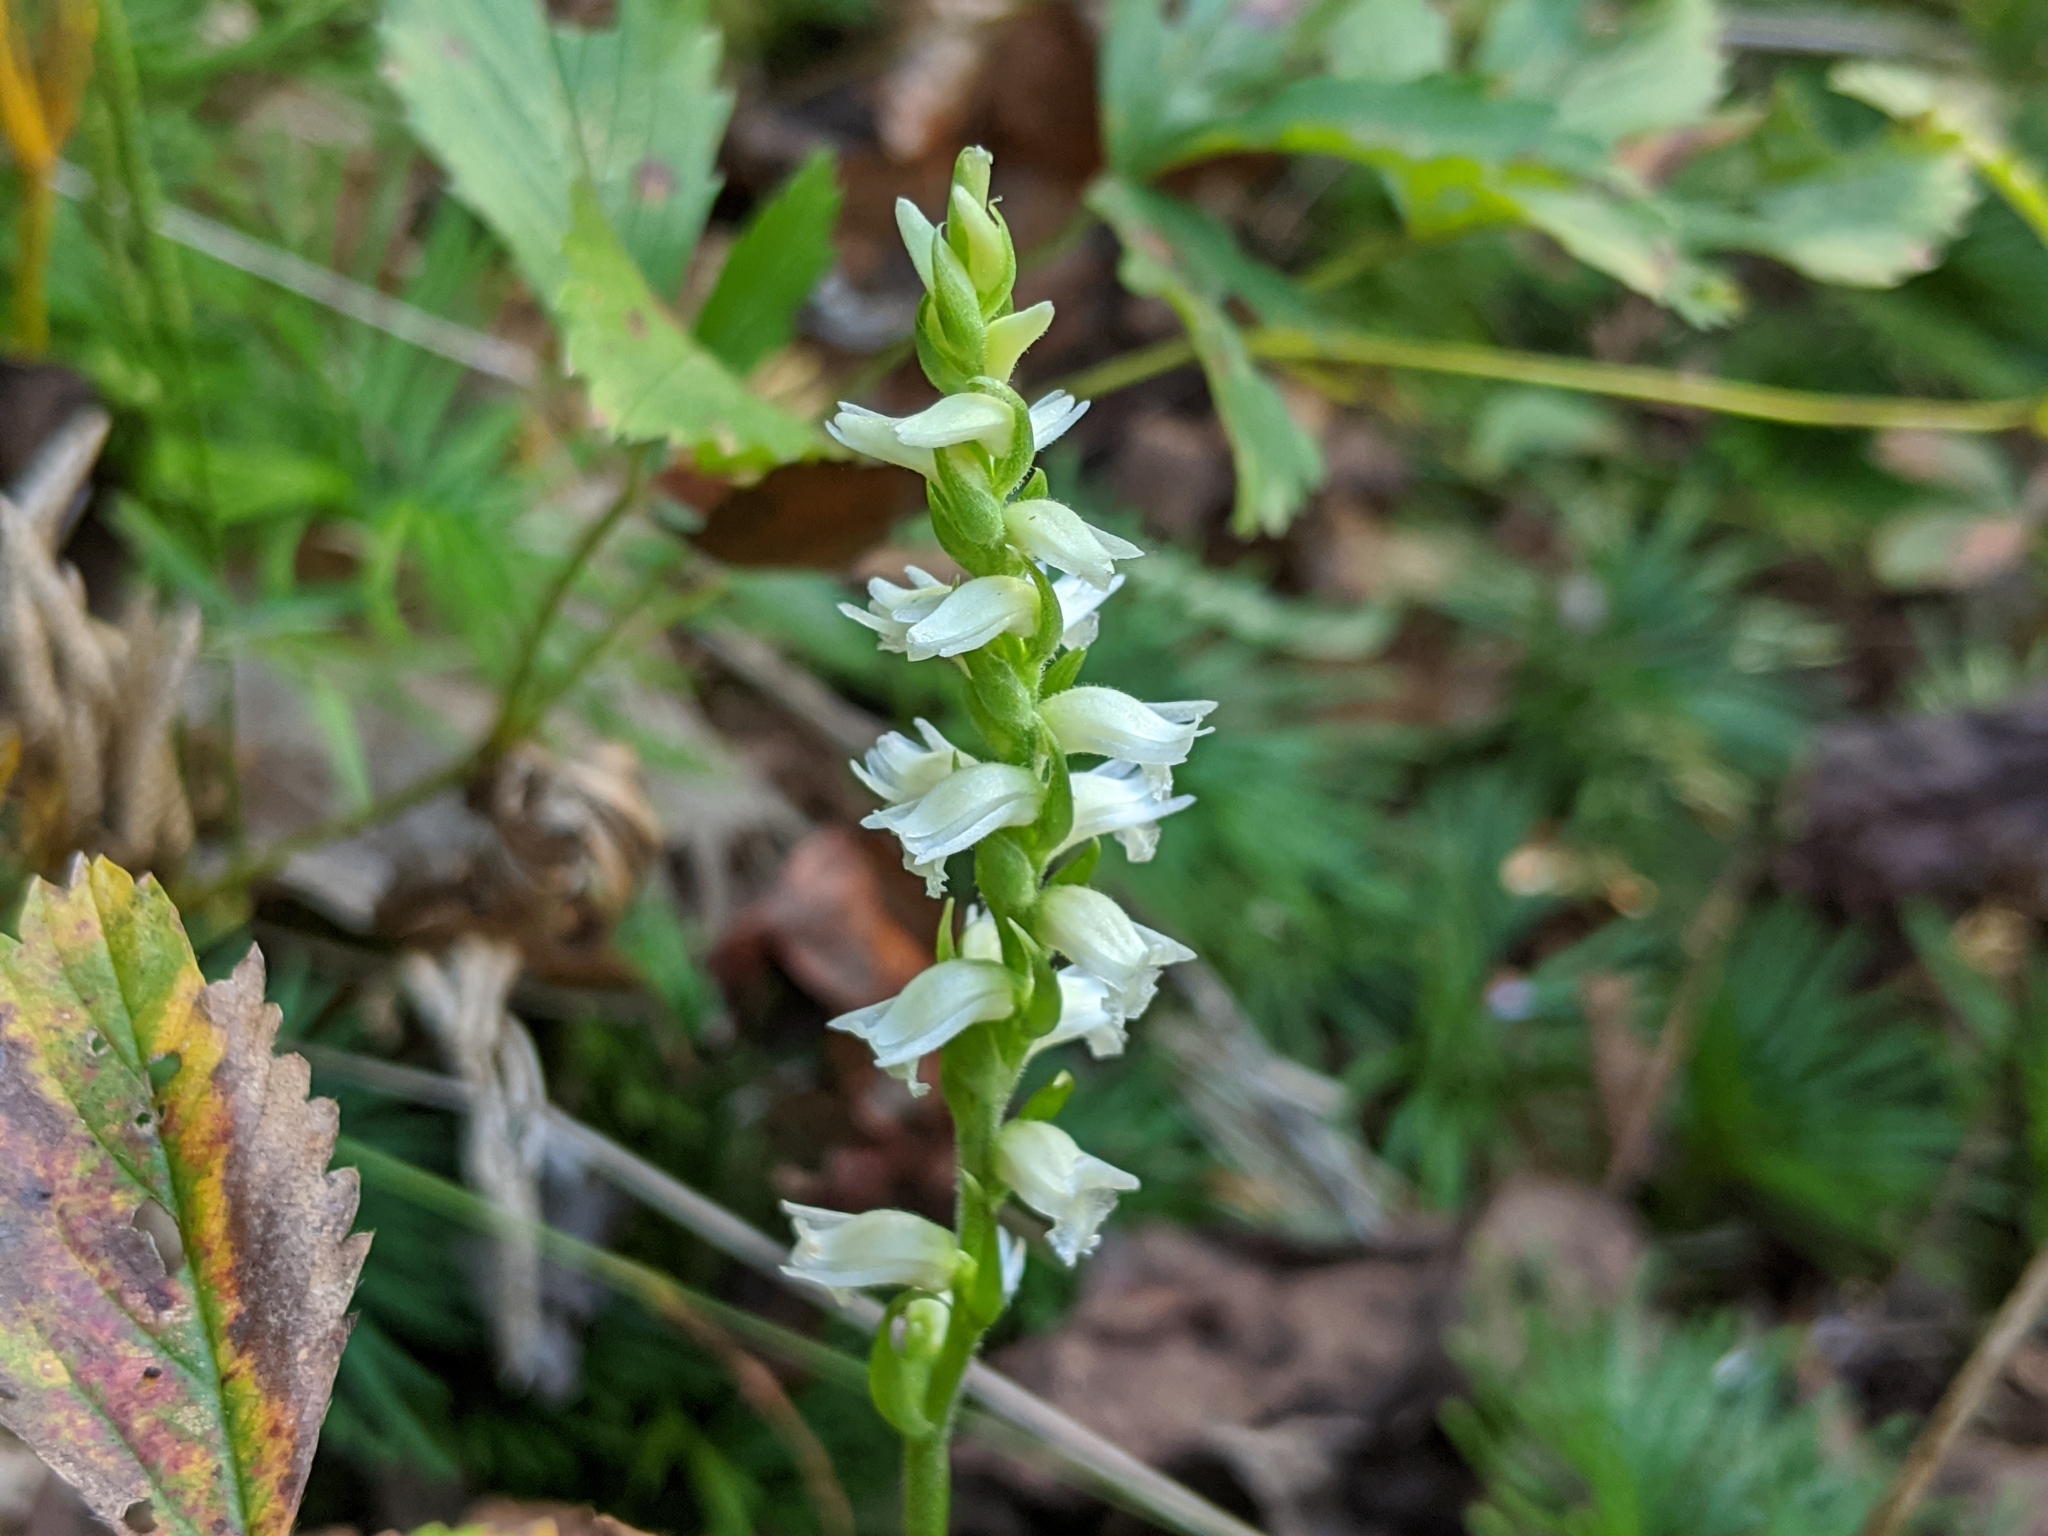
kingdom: Plantae
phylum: Tracheophyta
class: Liliopsida
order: Asparagales
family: Orchidaceae
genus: Spiranthes
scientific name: Spiranthes ochroleuca
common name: Yellow ladies'-tresses
